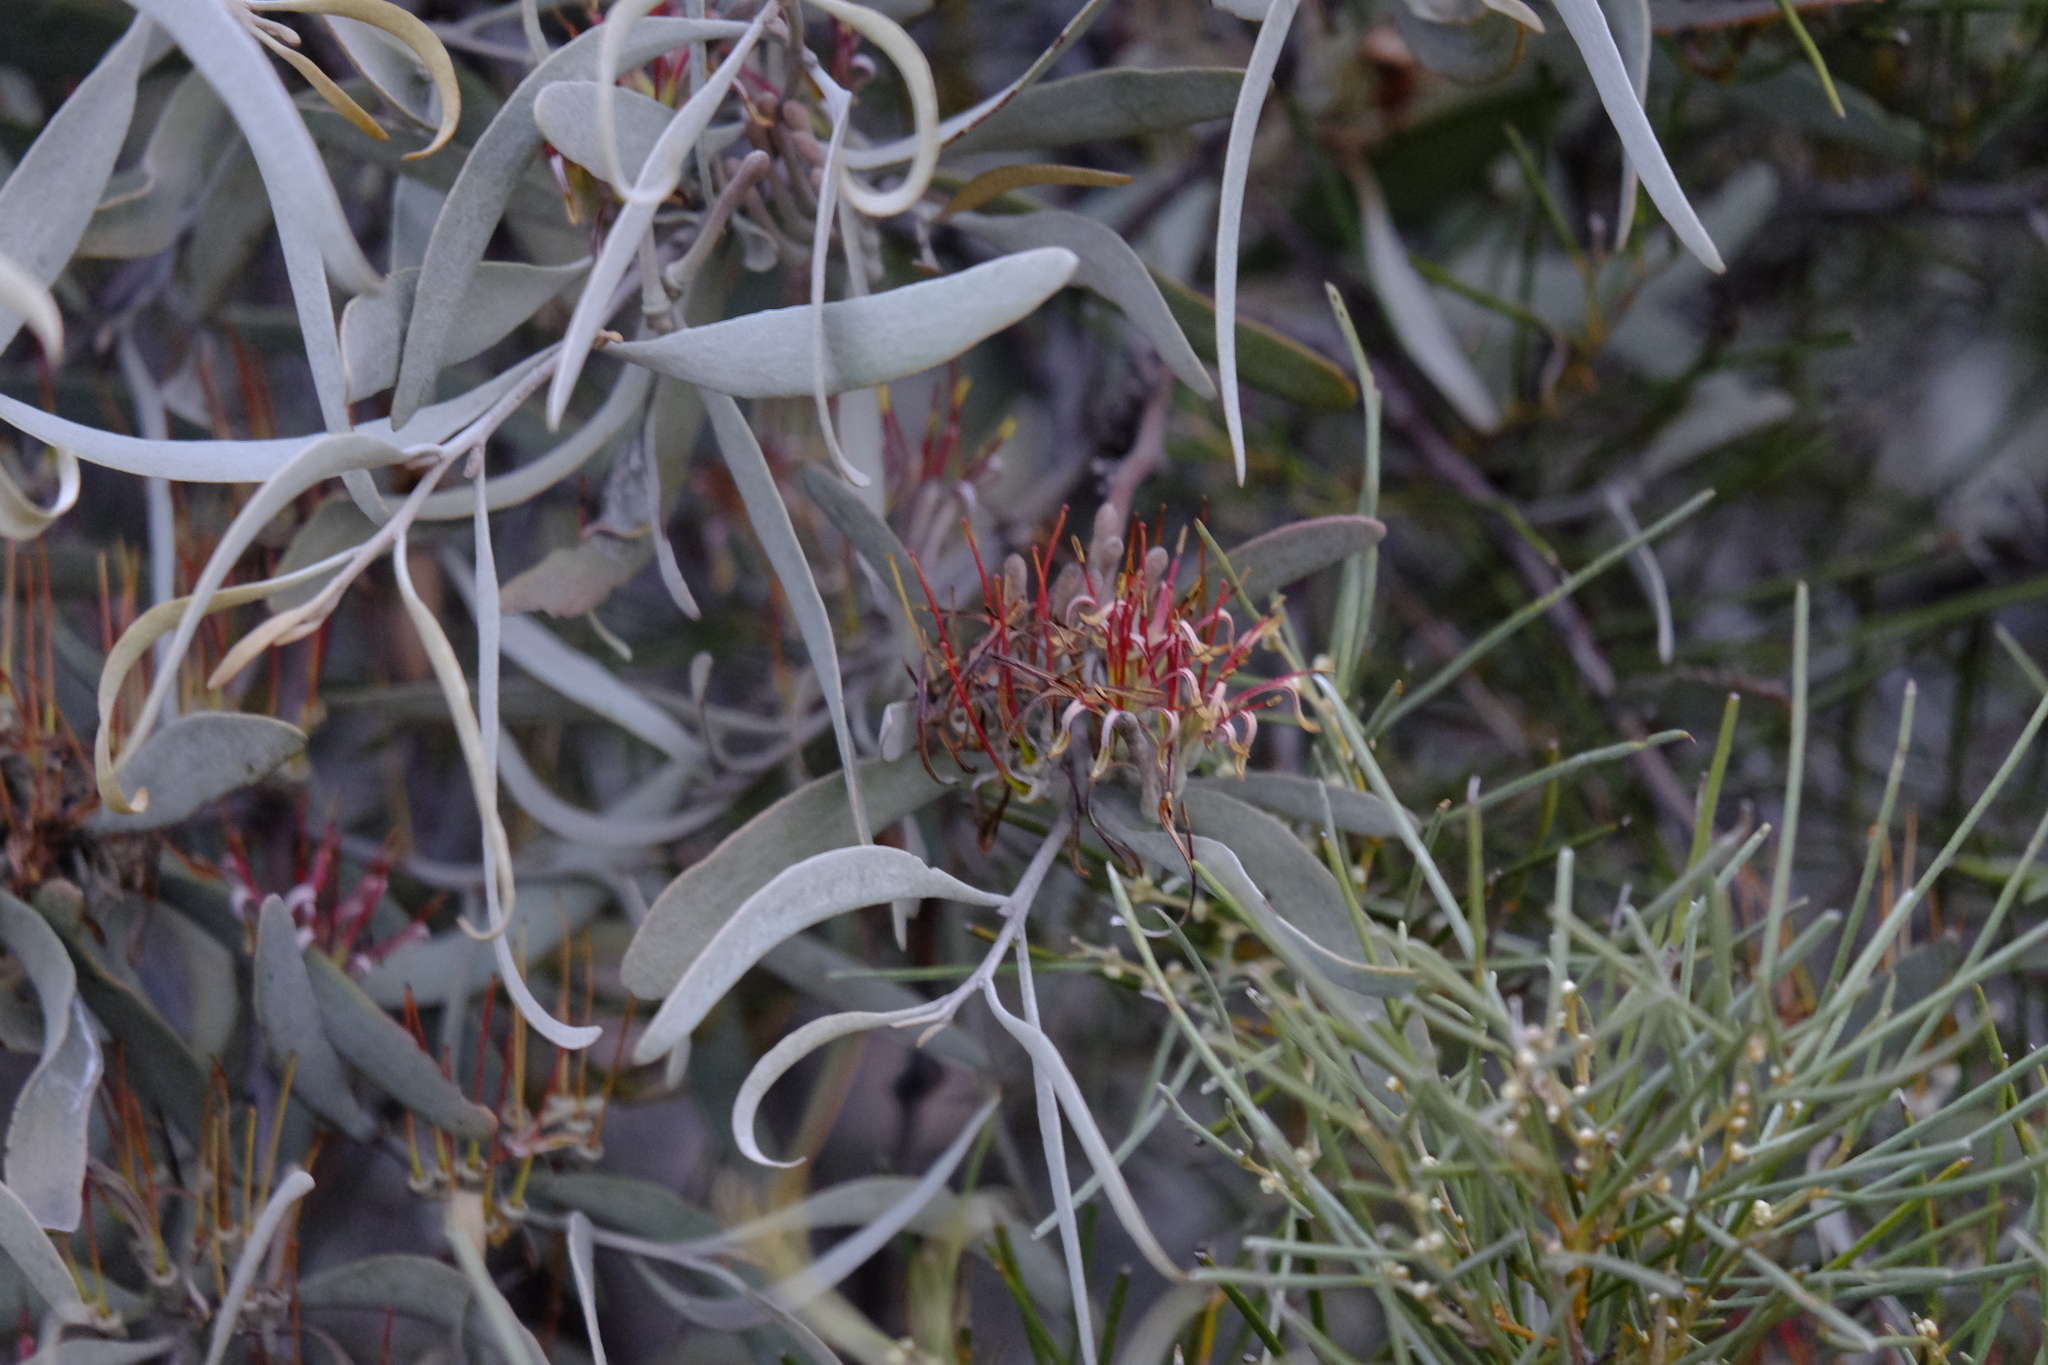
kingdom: Plantae
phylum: Tracheophyta
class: Magnoliopsida
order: Santalales
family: Loranthaceae
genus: Amyema
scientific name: Amyema quandang
